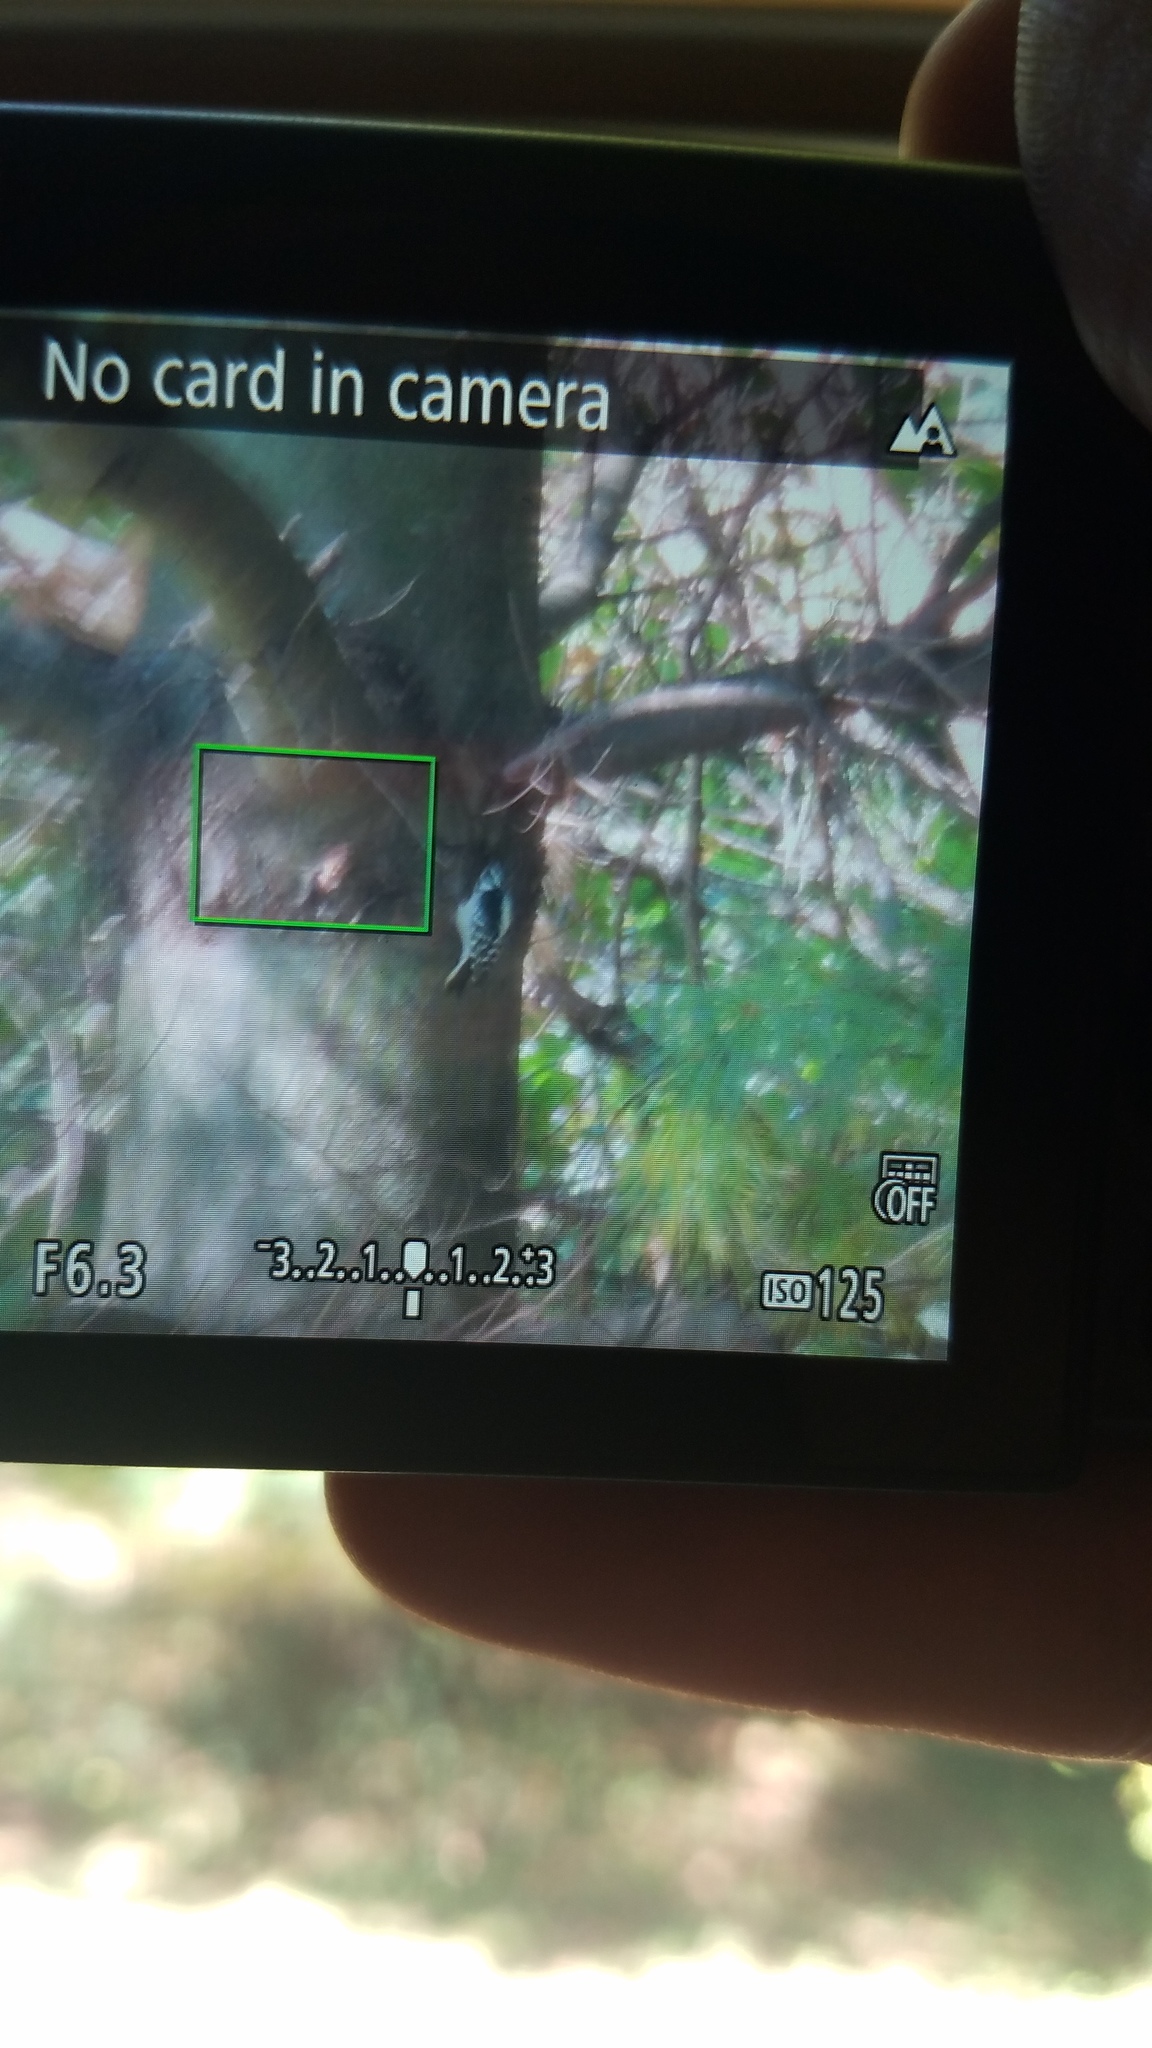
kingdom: Animalia
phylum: Chordata
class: Aves
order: Piciformes
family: Picidae
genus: Dryobates
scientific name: Dryobates pubescens
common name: Downy woodpecker
